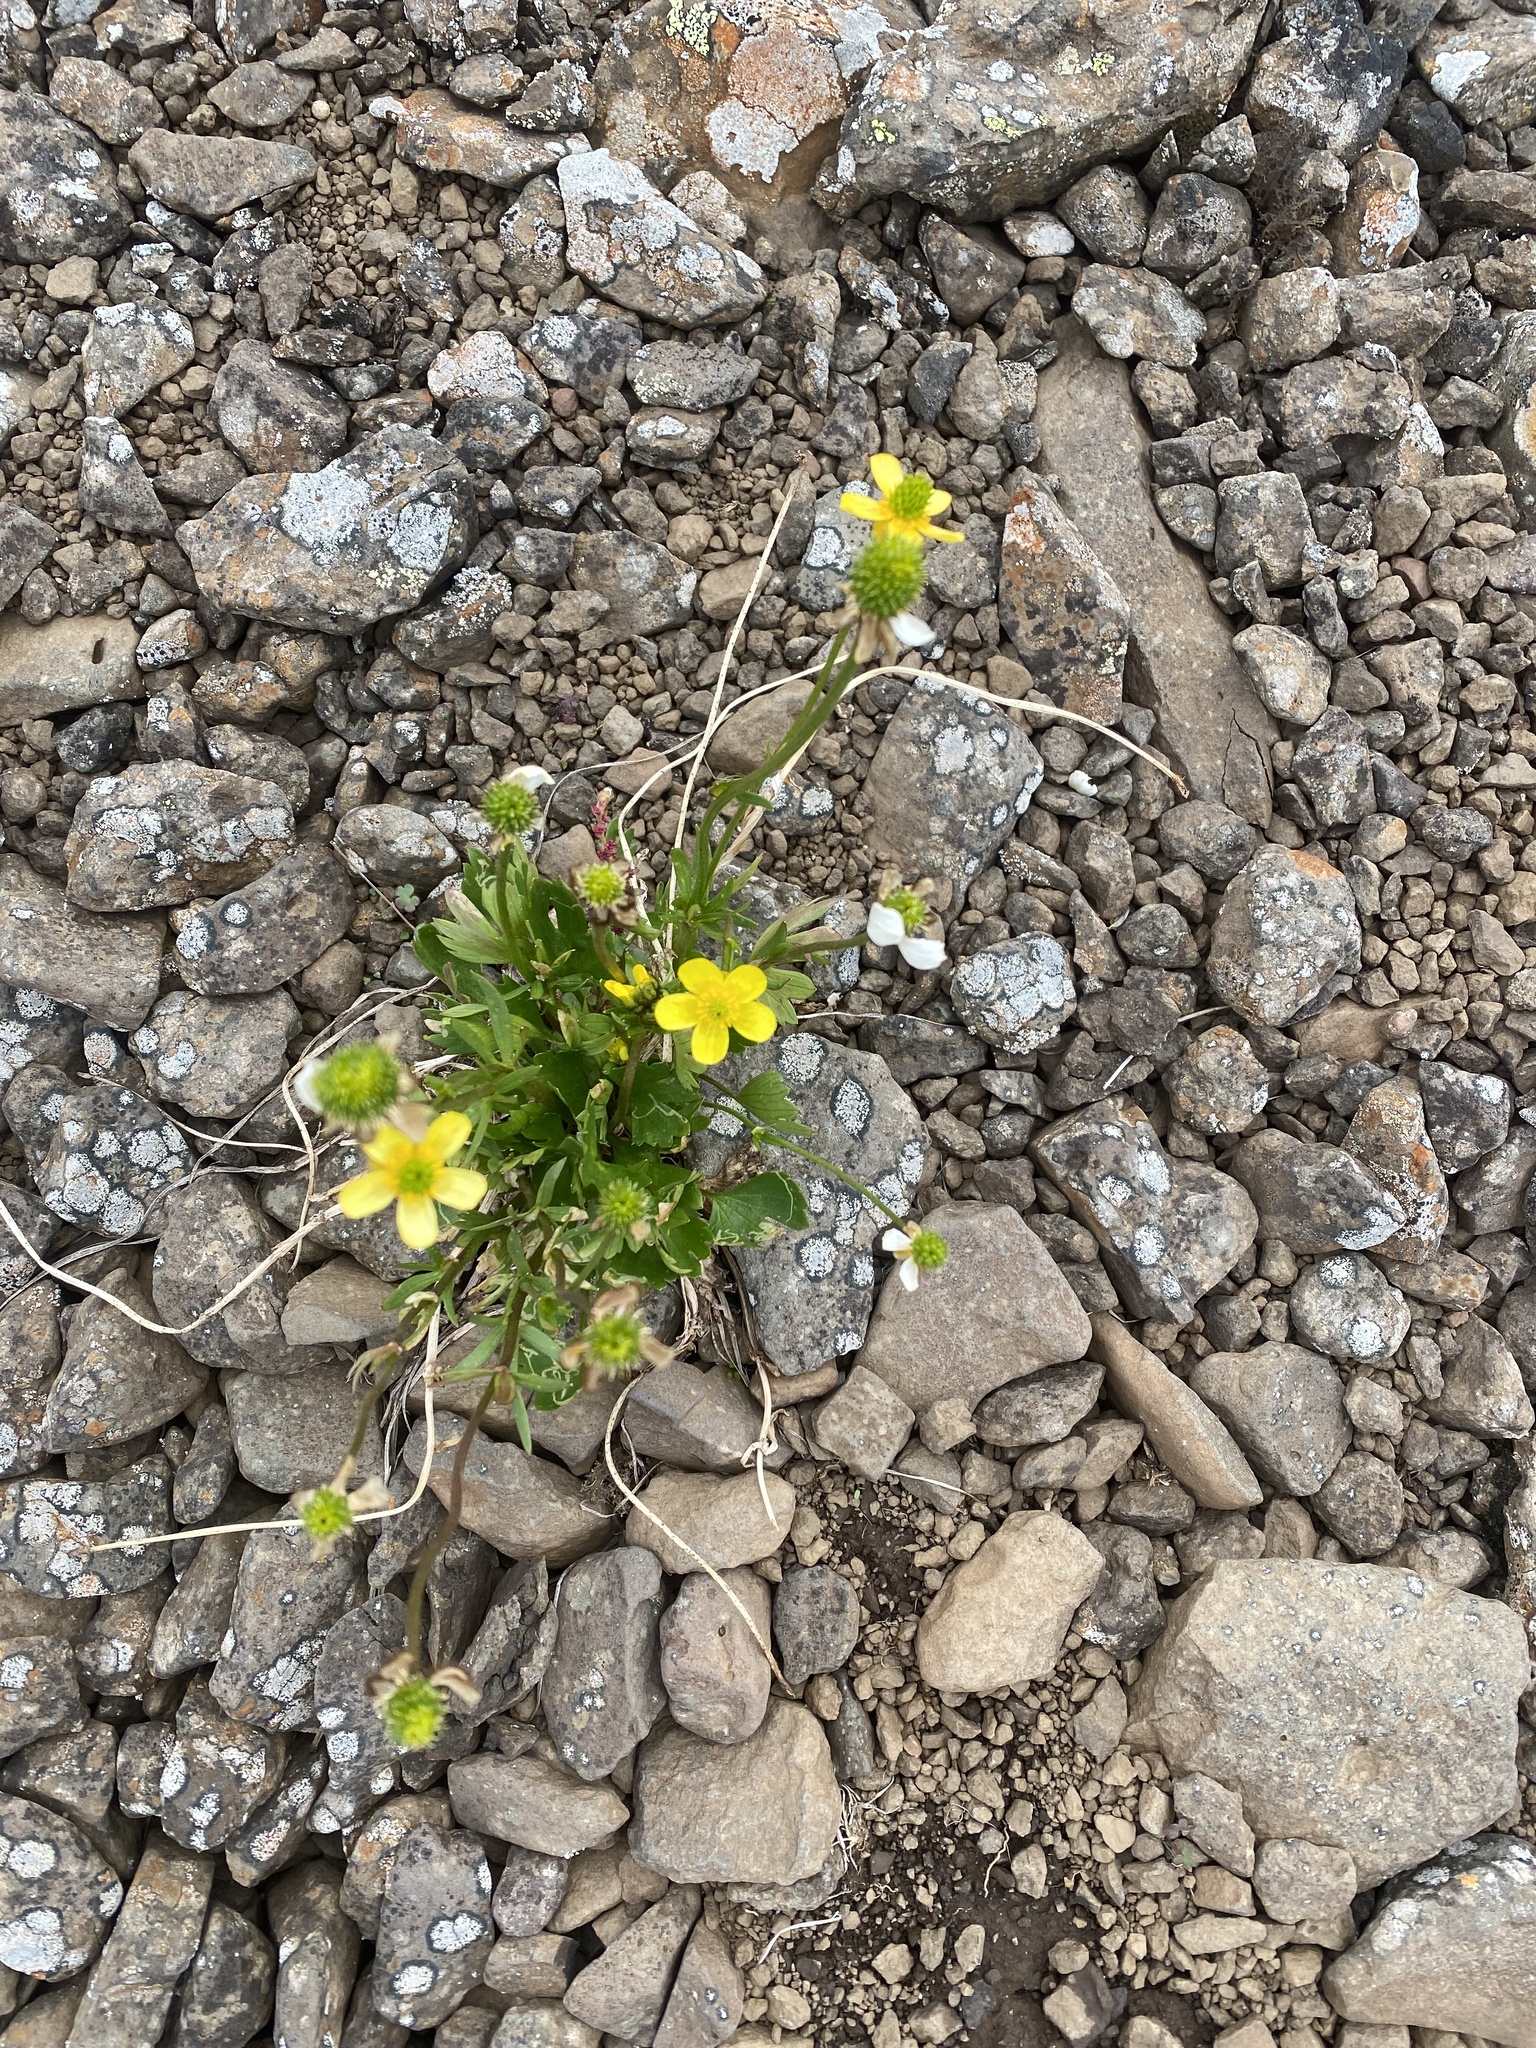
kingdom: Plantae
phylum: Tracheophyta
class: Magnoliopsida
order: Ranunculales
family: Ranunculaceae
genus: Ranunculus
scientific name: Ranunculus sulphureus
